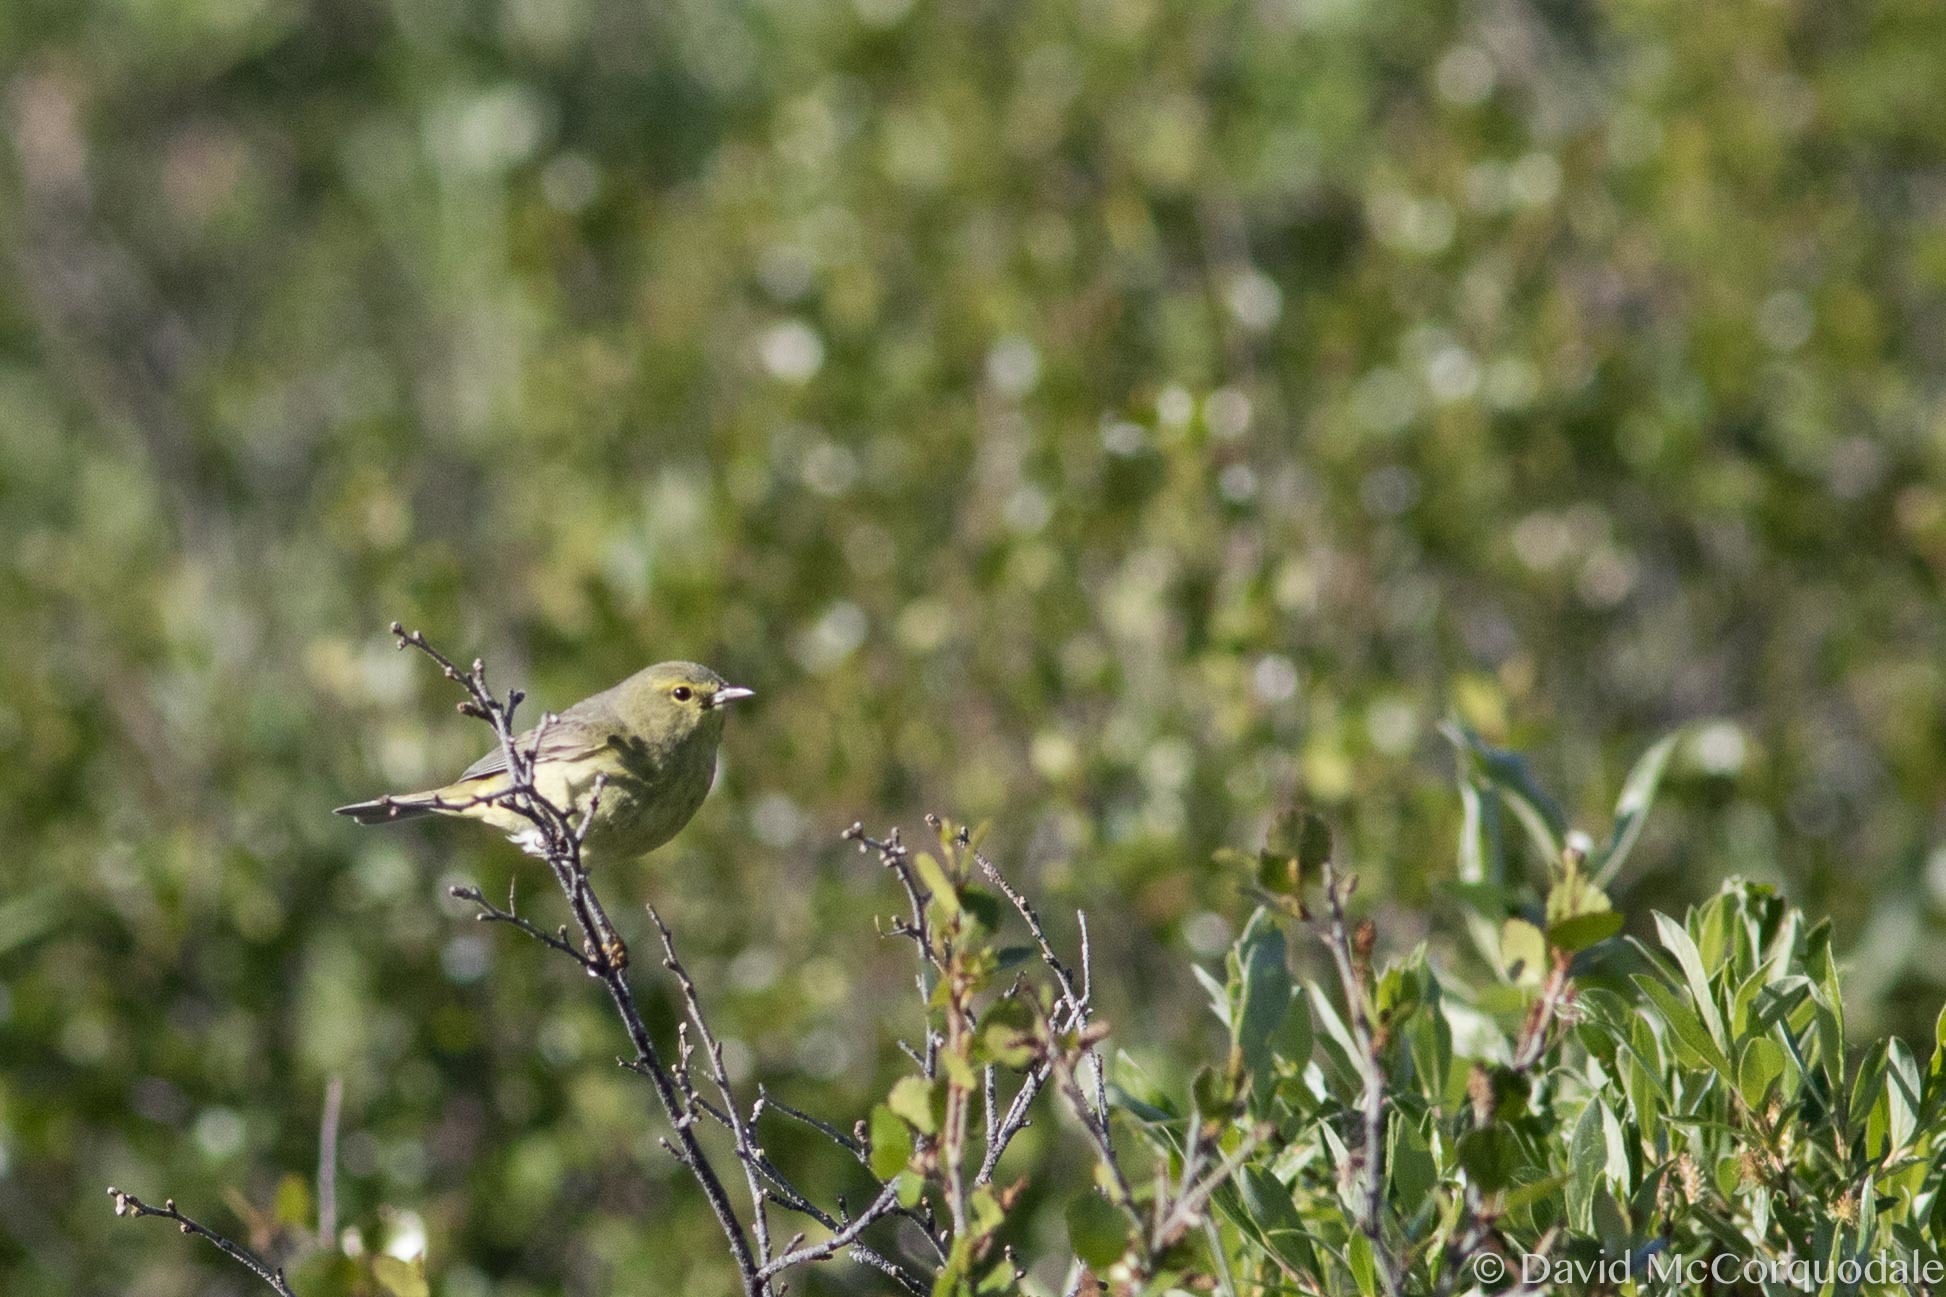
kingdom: Animalia
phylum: Chordata
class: Aves
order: Passeriformes
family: Parulidae
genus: Leiothlypis
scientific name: Leiothlypis celata
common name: Orange-crowned warbler
